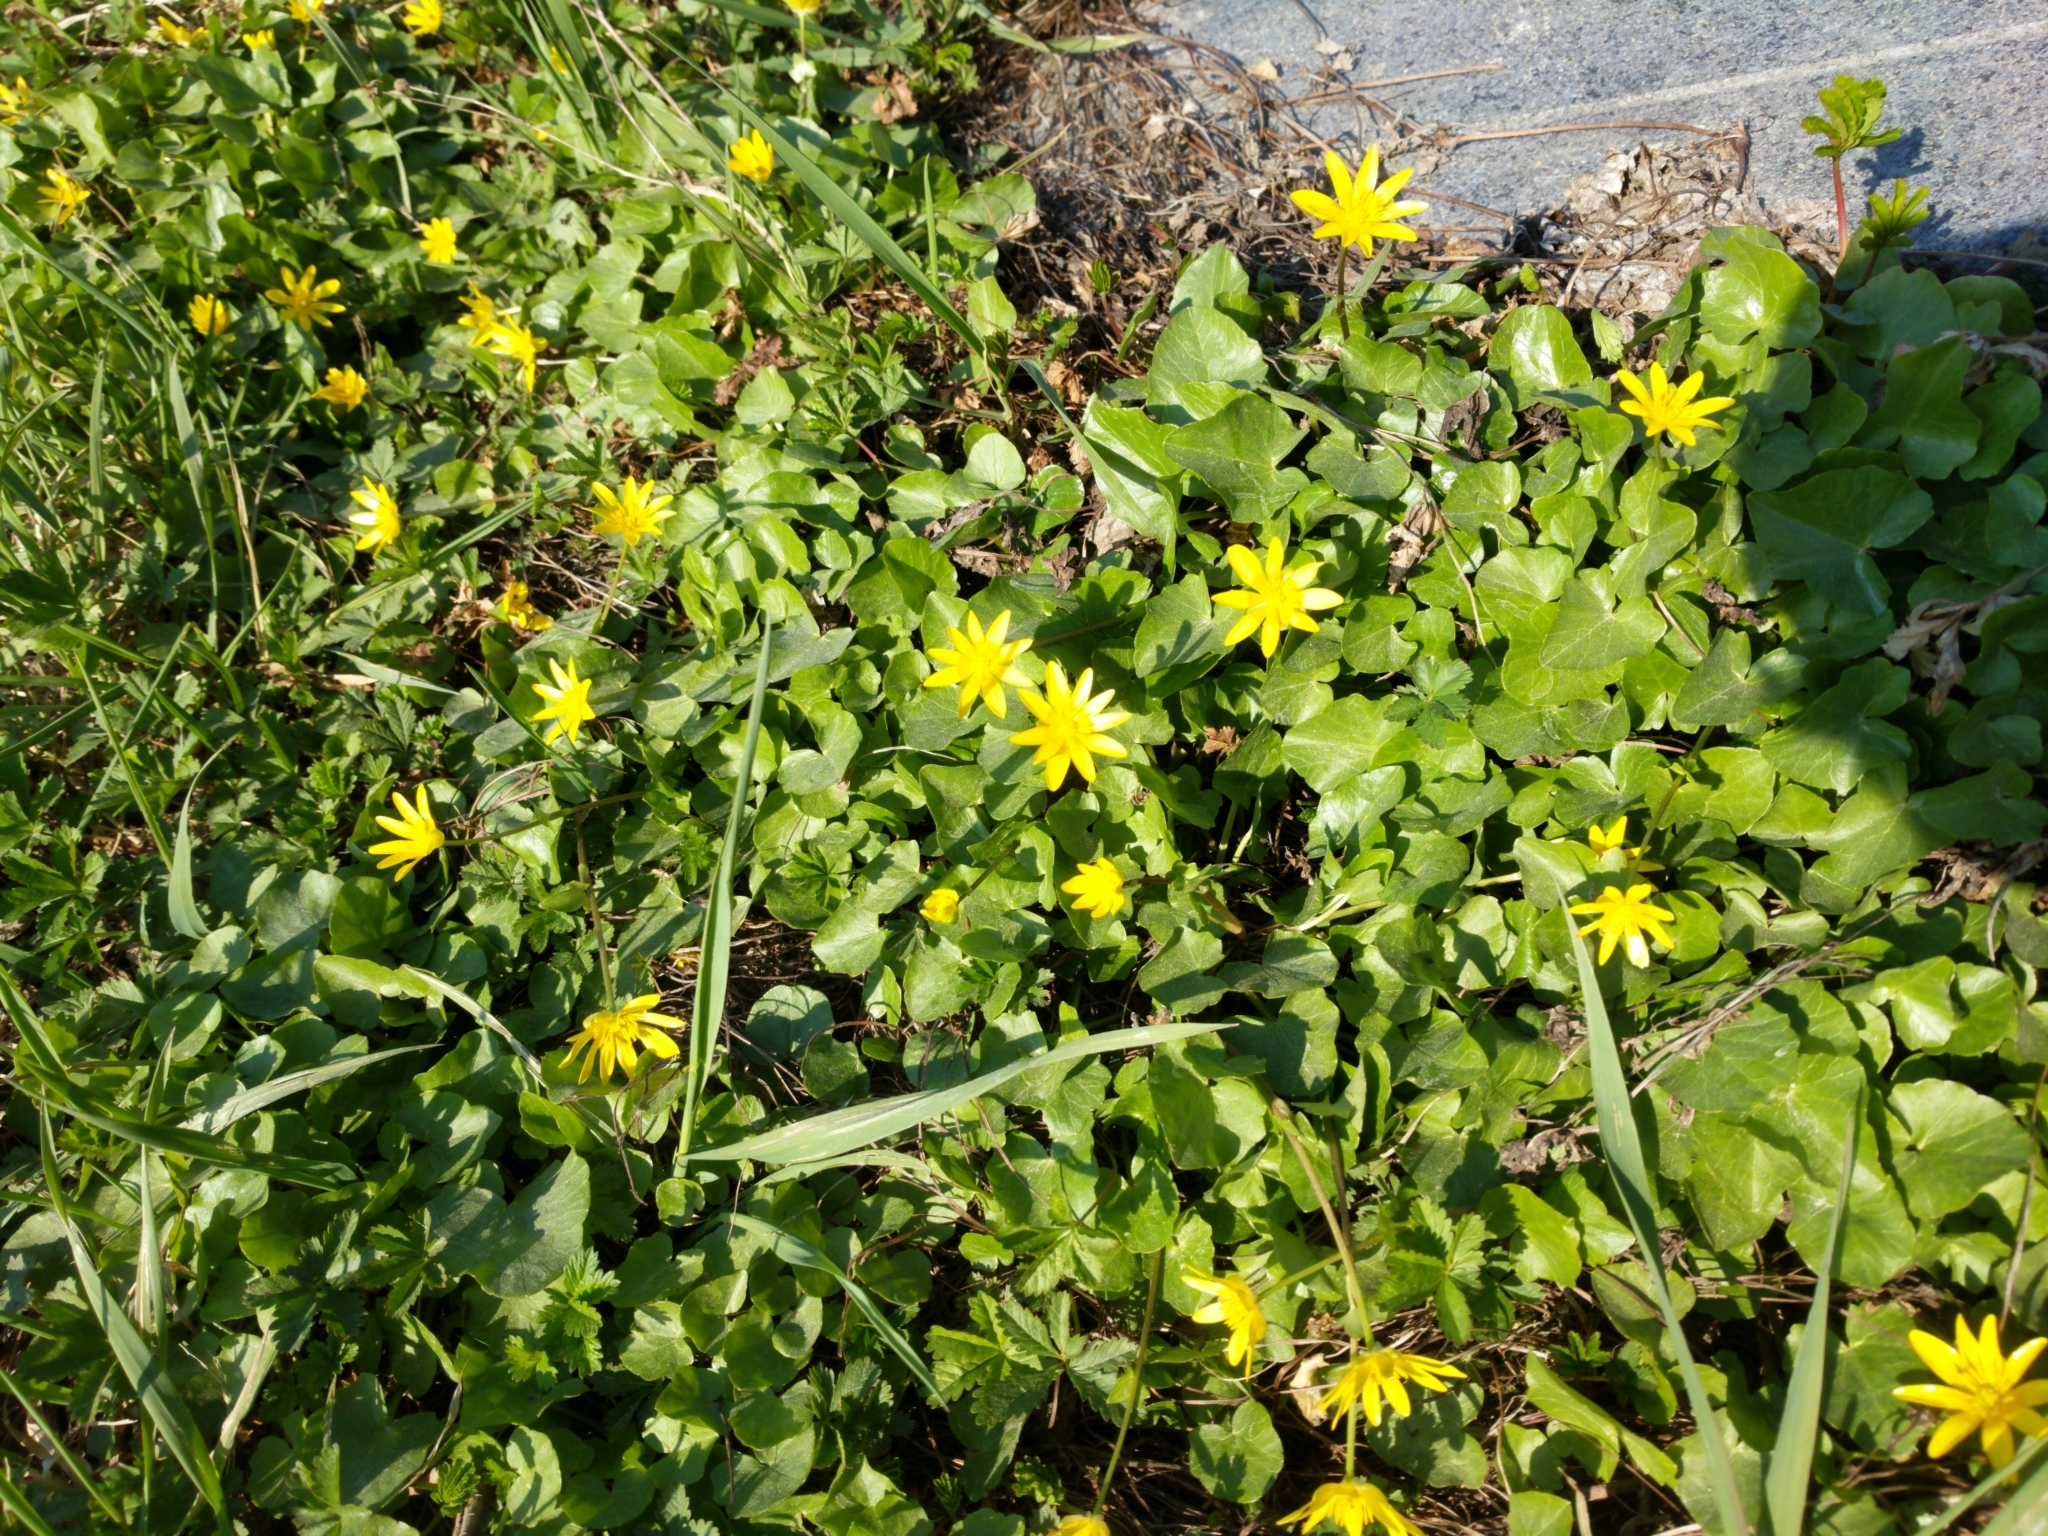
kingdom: Plantae
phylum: Tracheophyta
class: Magnoliopsida
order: Ranunculales
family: Ranunculaceae
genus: Ficaria
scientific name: Ficaria verna
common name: Lesser celandine
